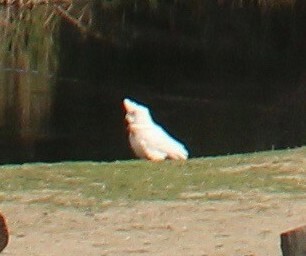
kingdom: Animalia
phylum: Chordata
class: Aves
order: Psittaciformes
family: Psittacidae
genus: Cacatua
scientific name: Cacatua sanguinea
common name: Little corella
